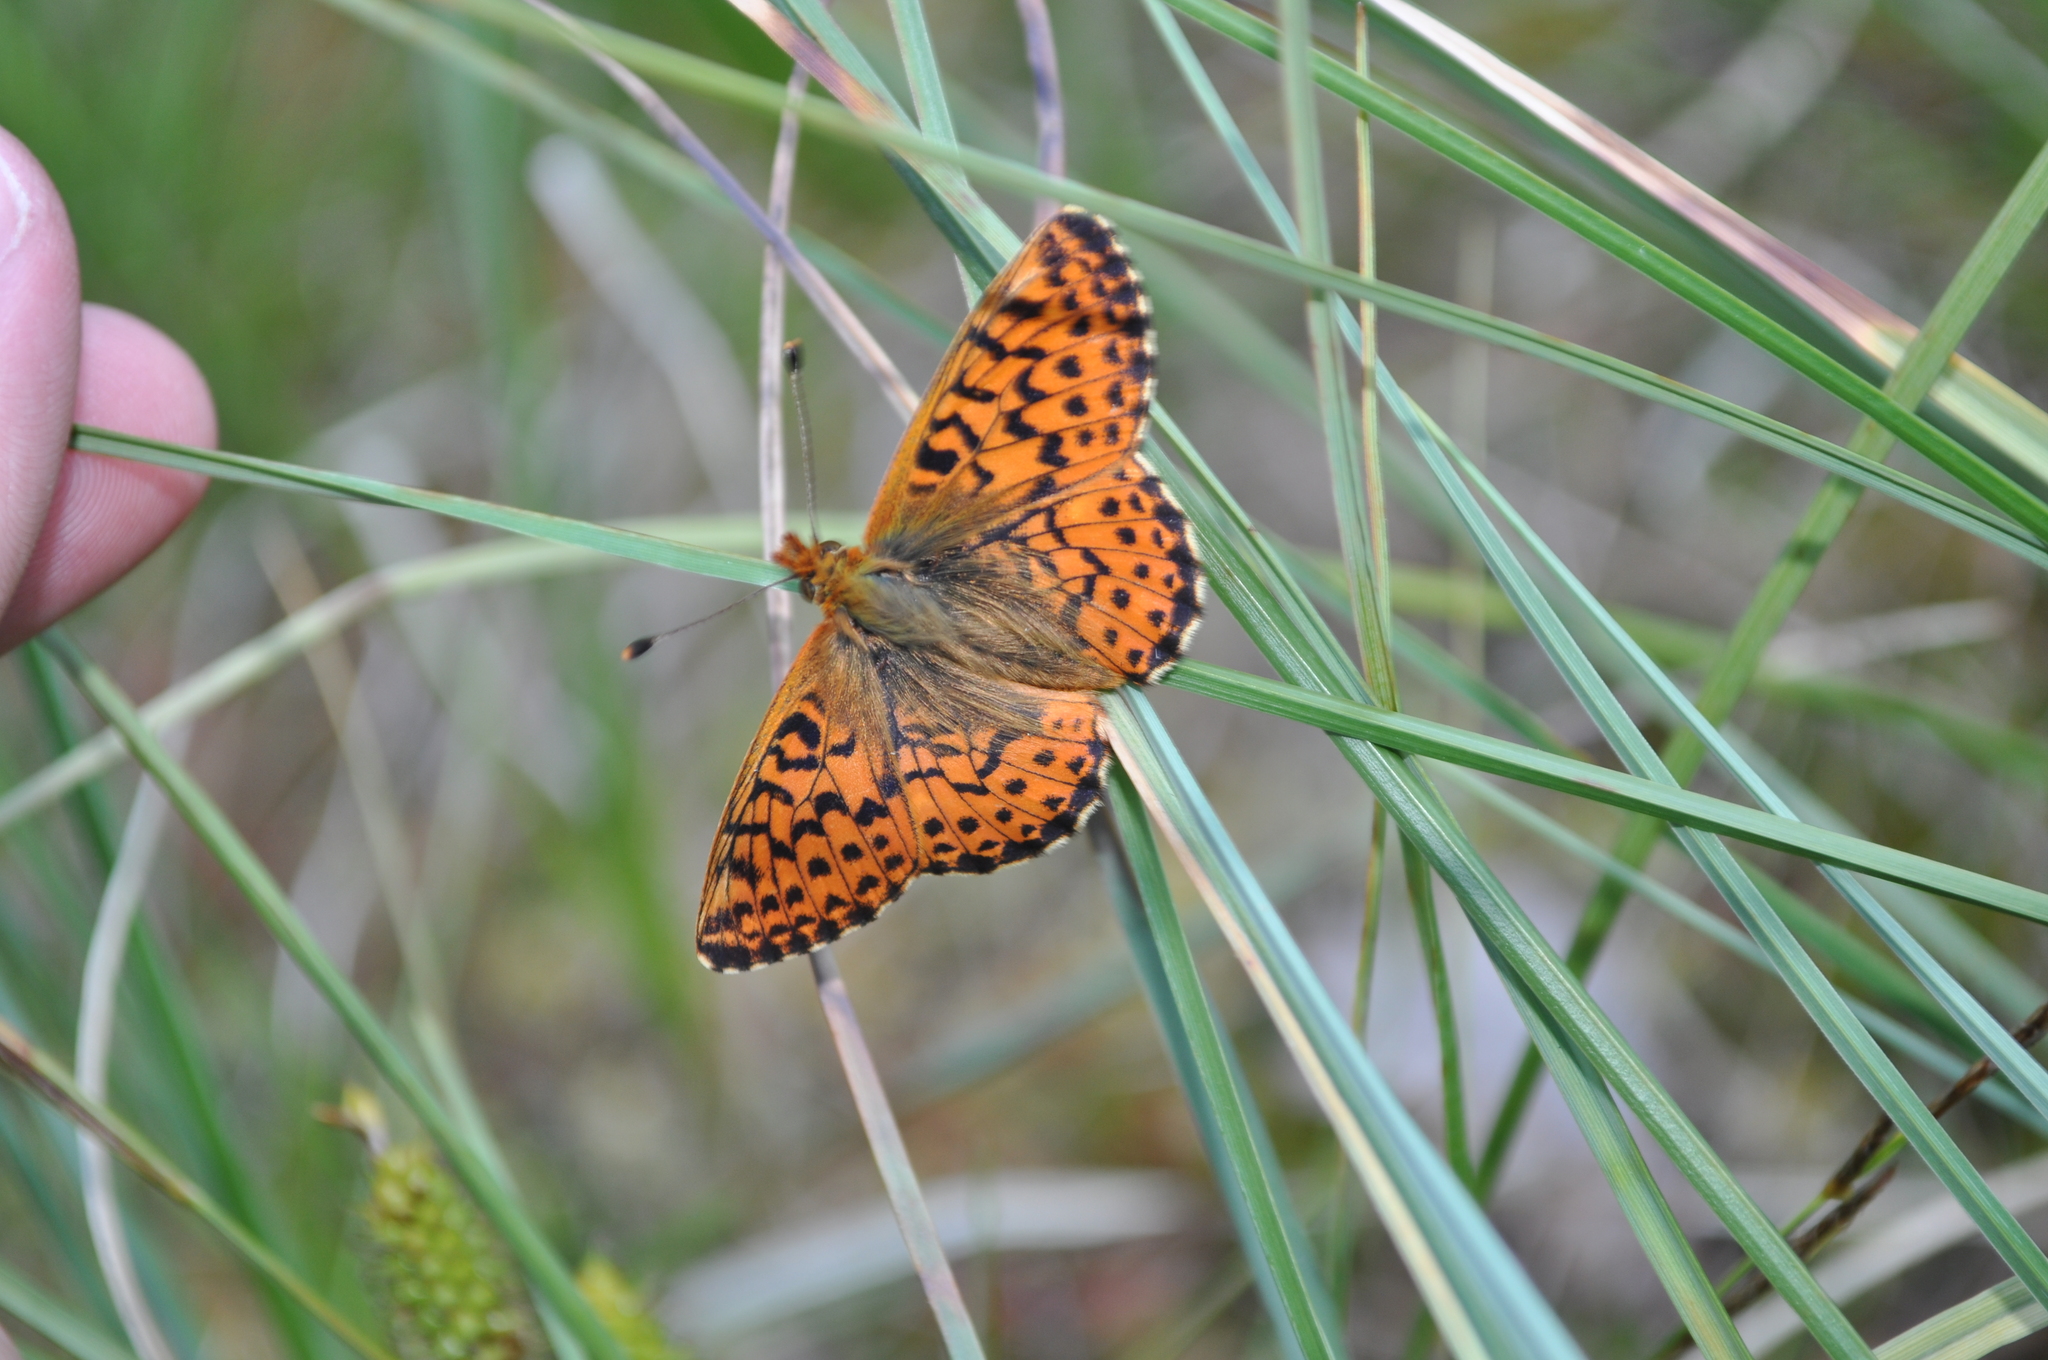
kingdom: Animalia
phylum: Arthropoda
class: Insecta
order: Lepidoptera
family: Nymphalidae
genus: Boloria
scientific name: Boloria aquilonaris
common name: Cranberry fritillary
